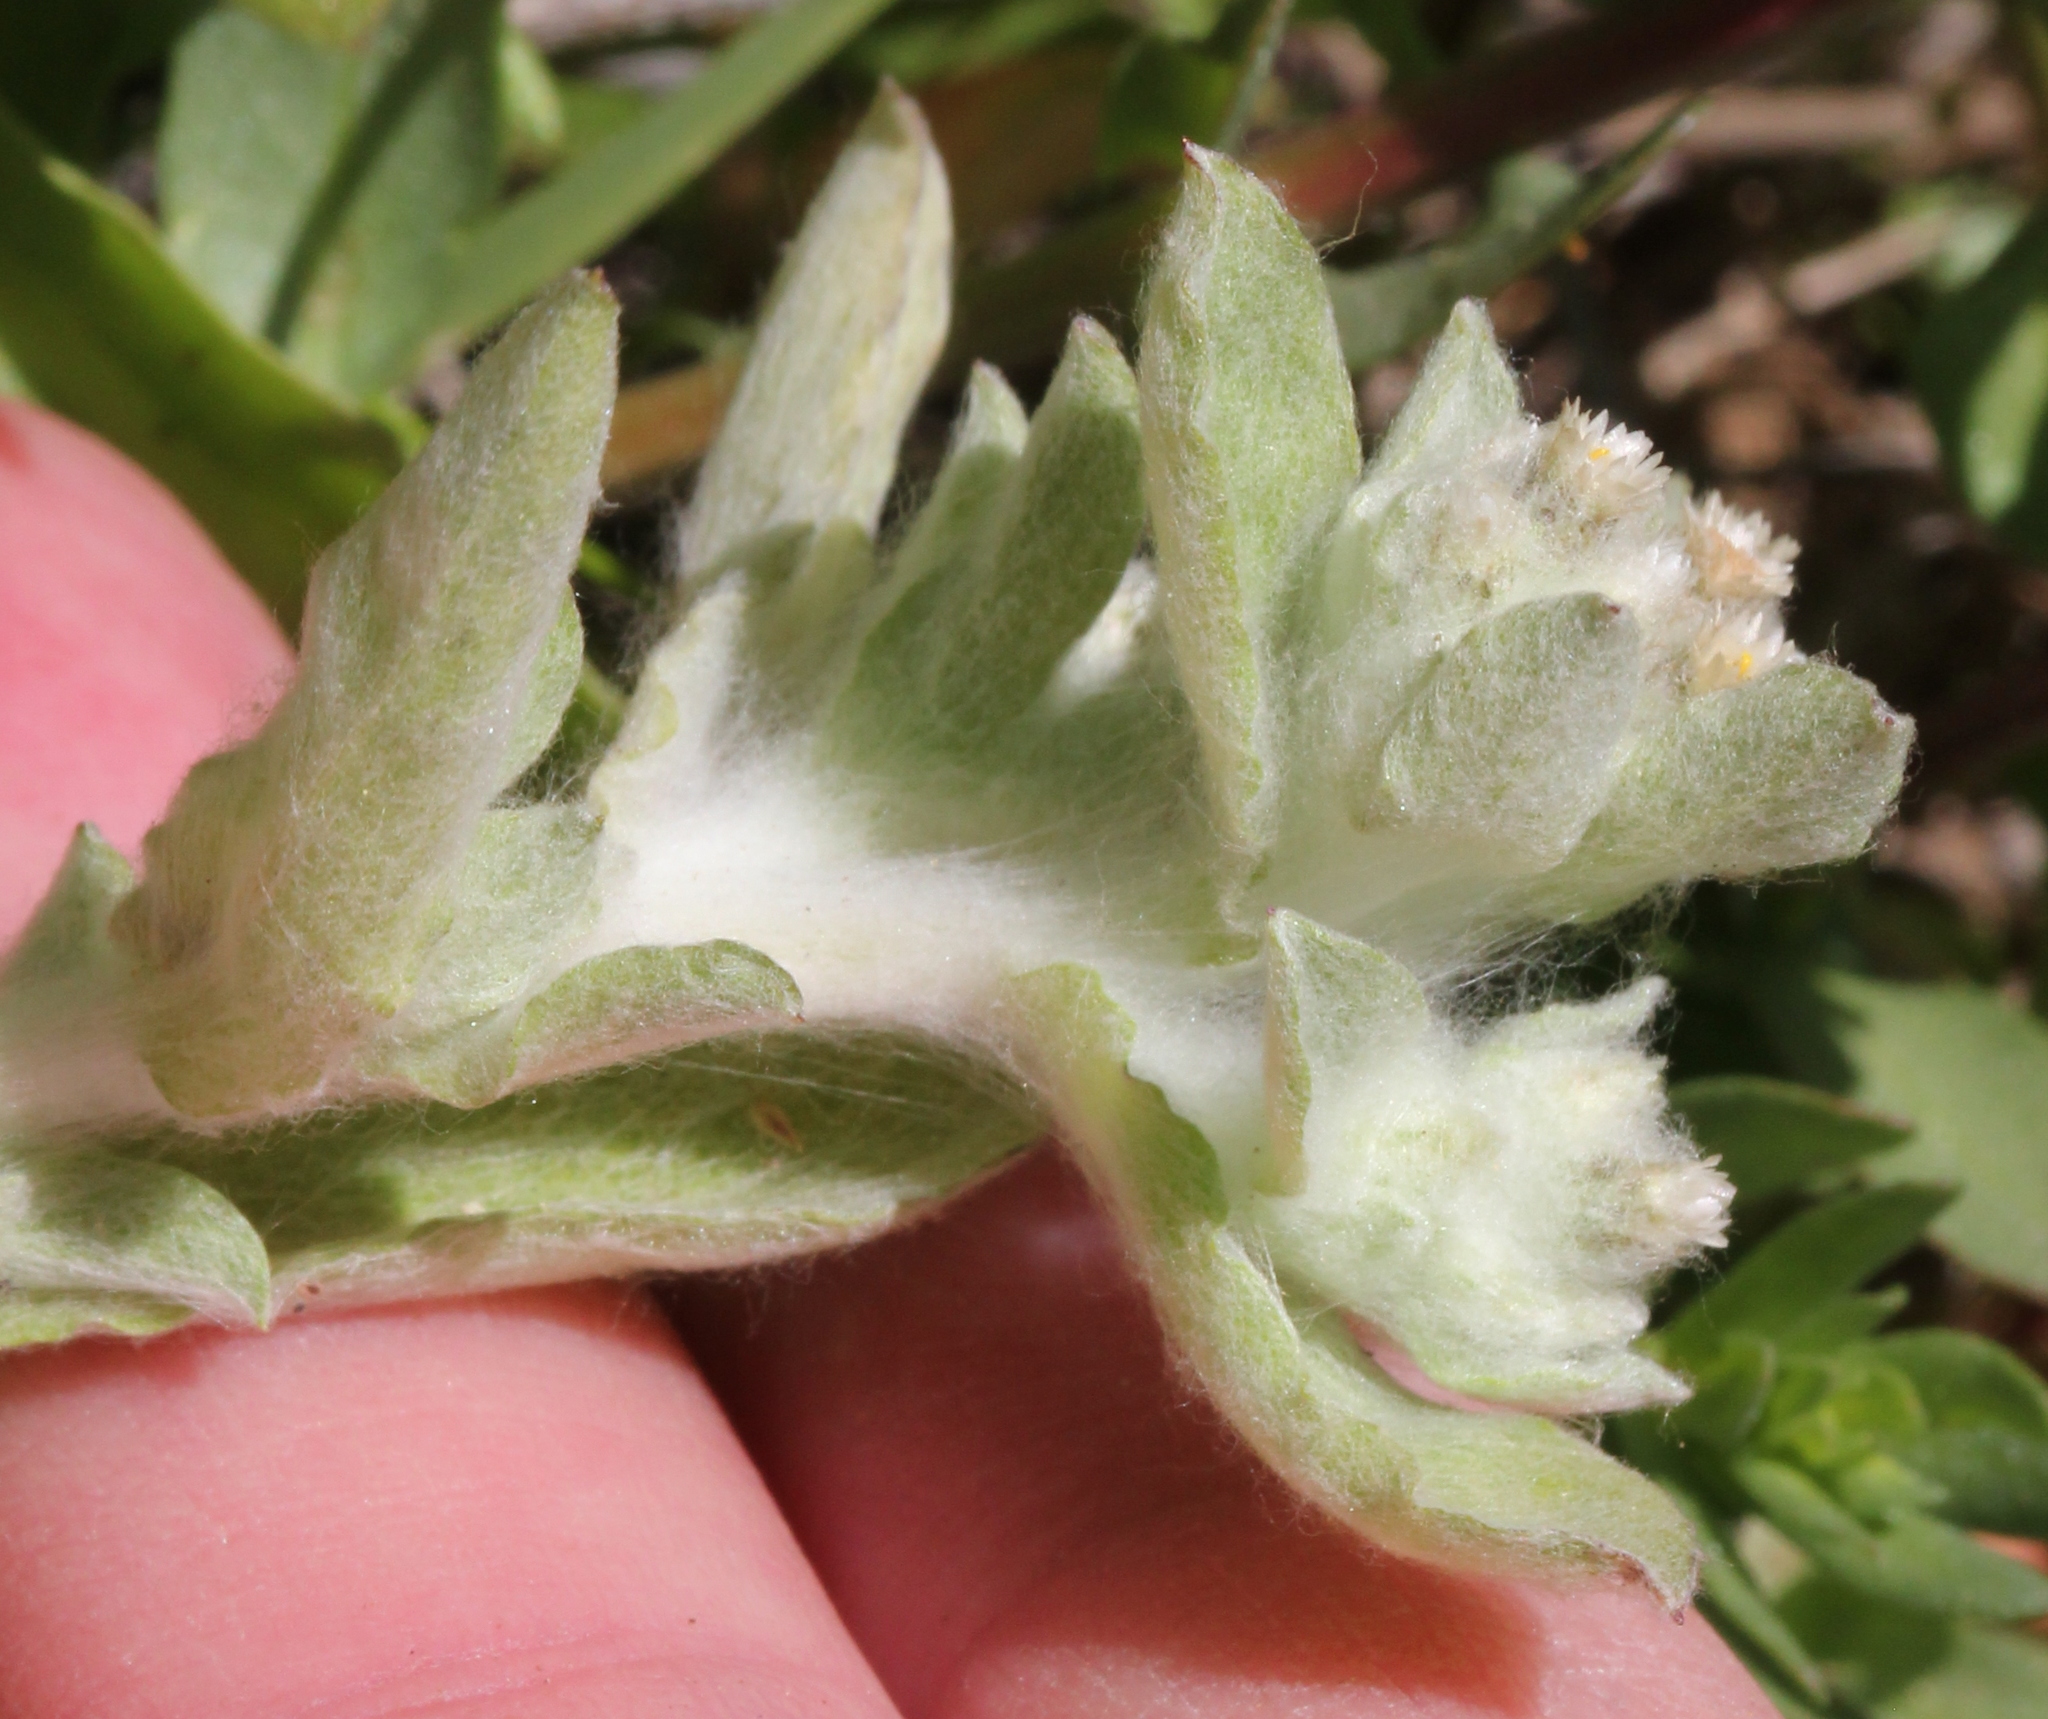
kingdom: Plantae
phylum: Tracheophyta
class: Magnoliopsida
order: Asterales
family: Asteraceae
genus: Gnaphalium
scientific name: Gnaphalium palustre
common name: Western marsh cudweed
